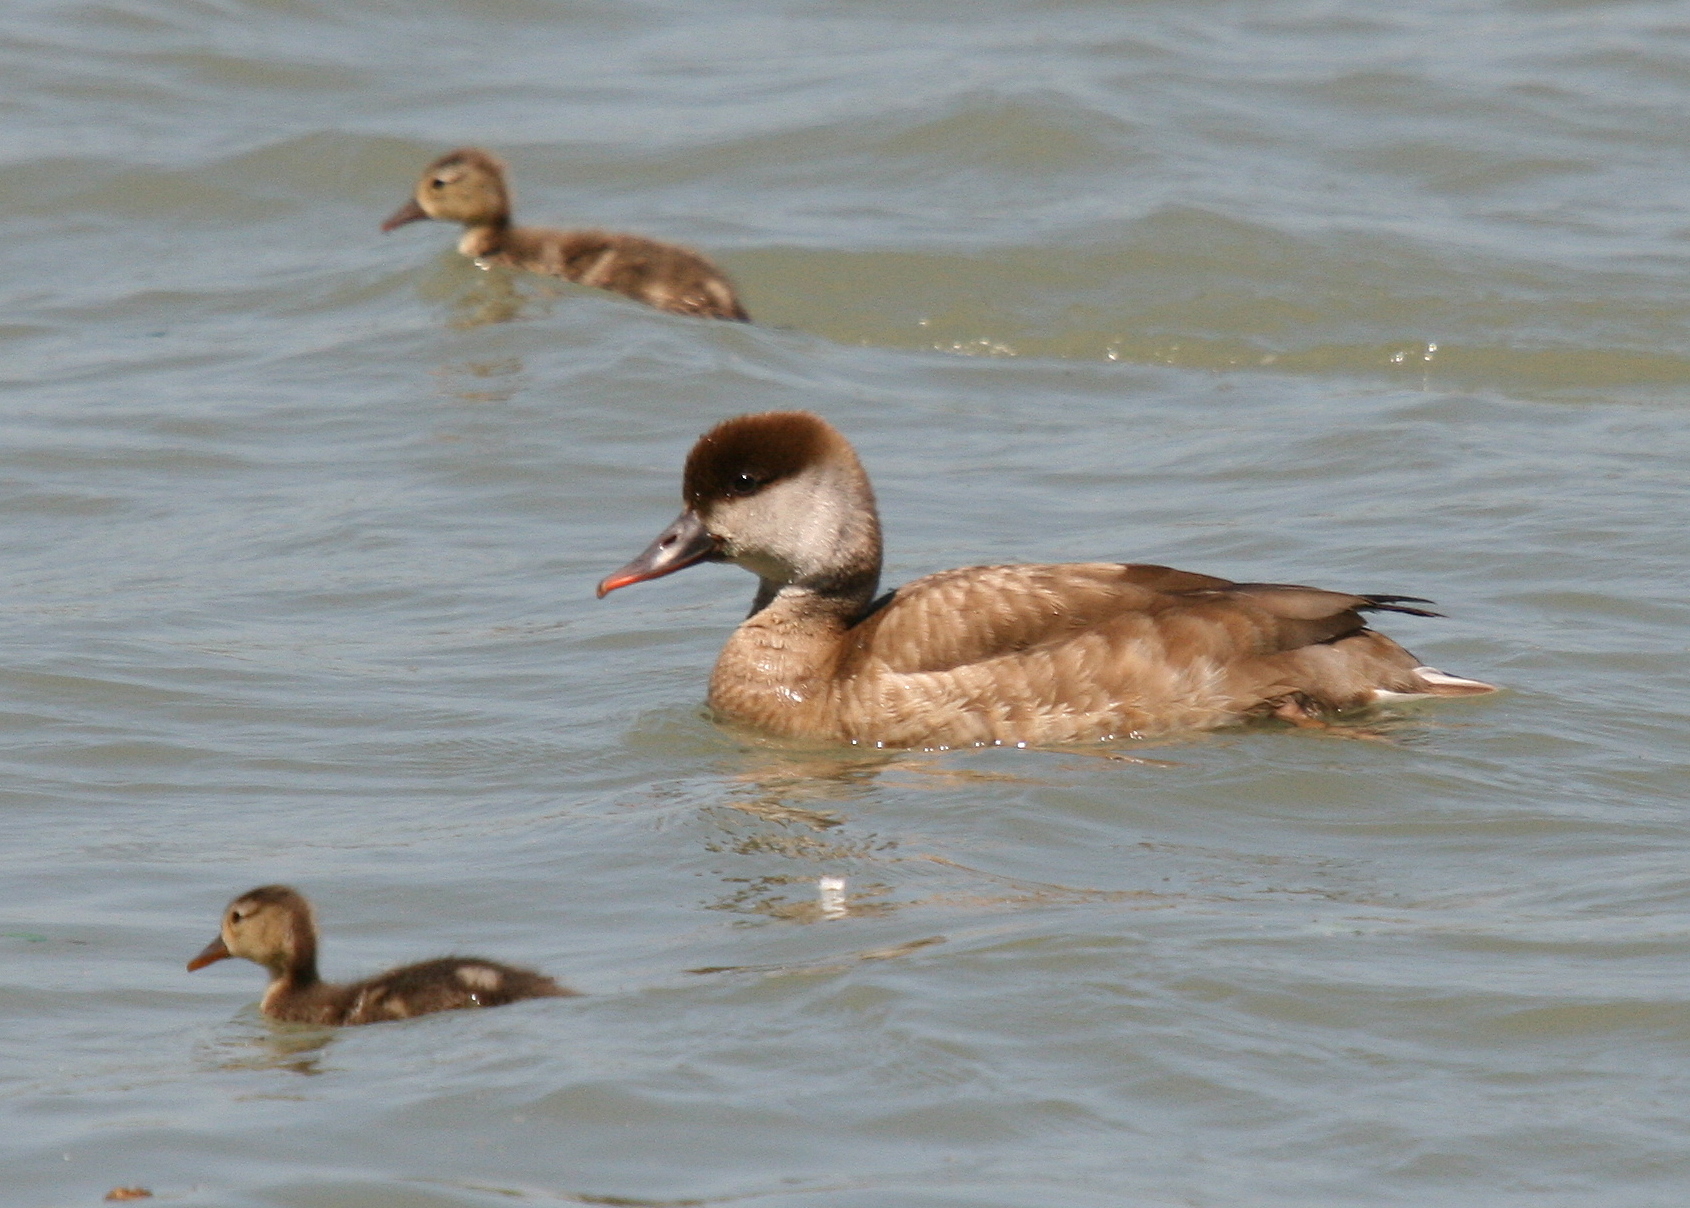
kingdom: Animalia
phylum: Chordata
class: Aves
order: Anseriformes
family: Anatidae
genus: Netta
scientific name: Netta rufina
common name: Red-crested pochard
